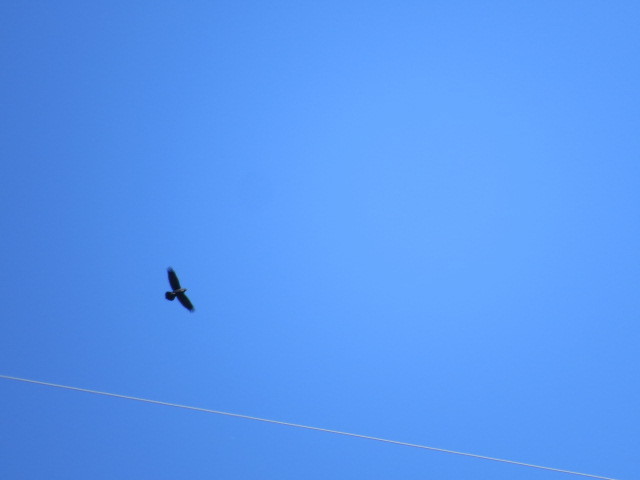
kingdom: Animalia
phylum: Chordata
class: Aves
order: Passeriformes
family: Corvidae
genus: Corvus
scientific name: Corvus corax
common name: Common raven
